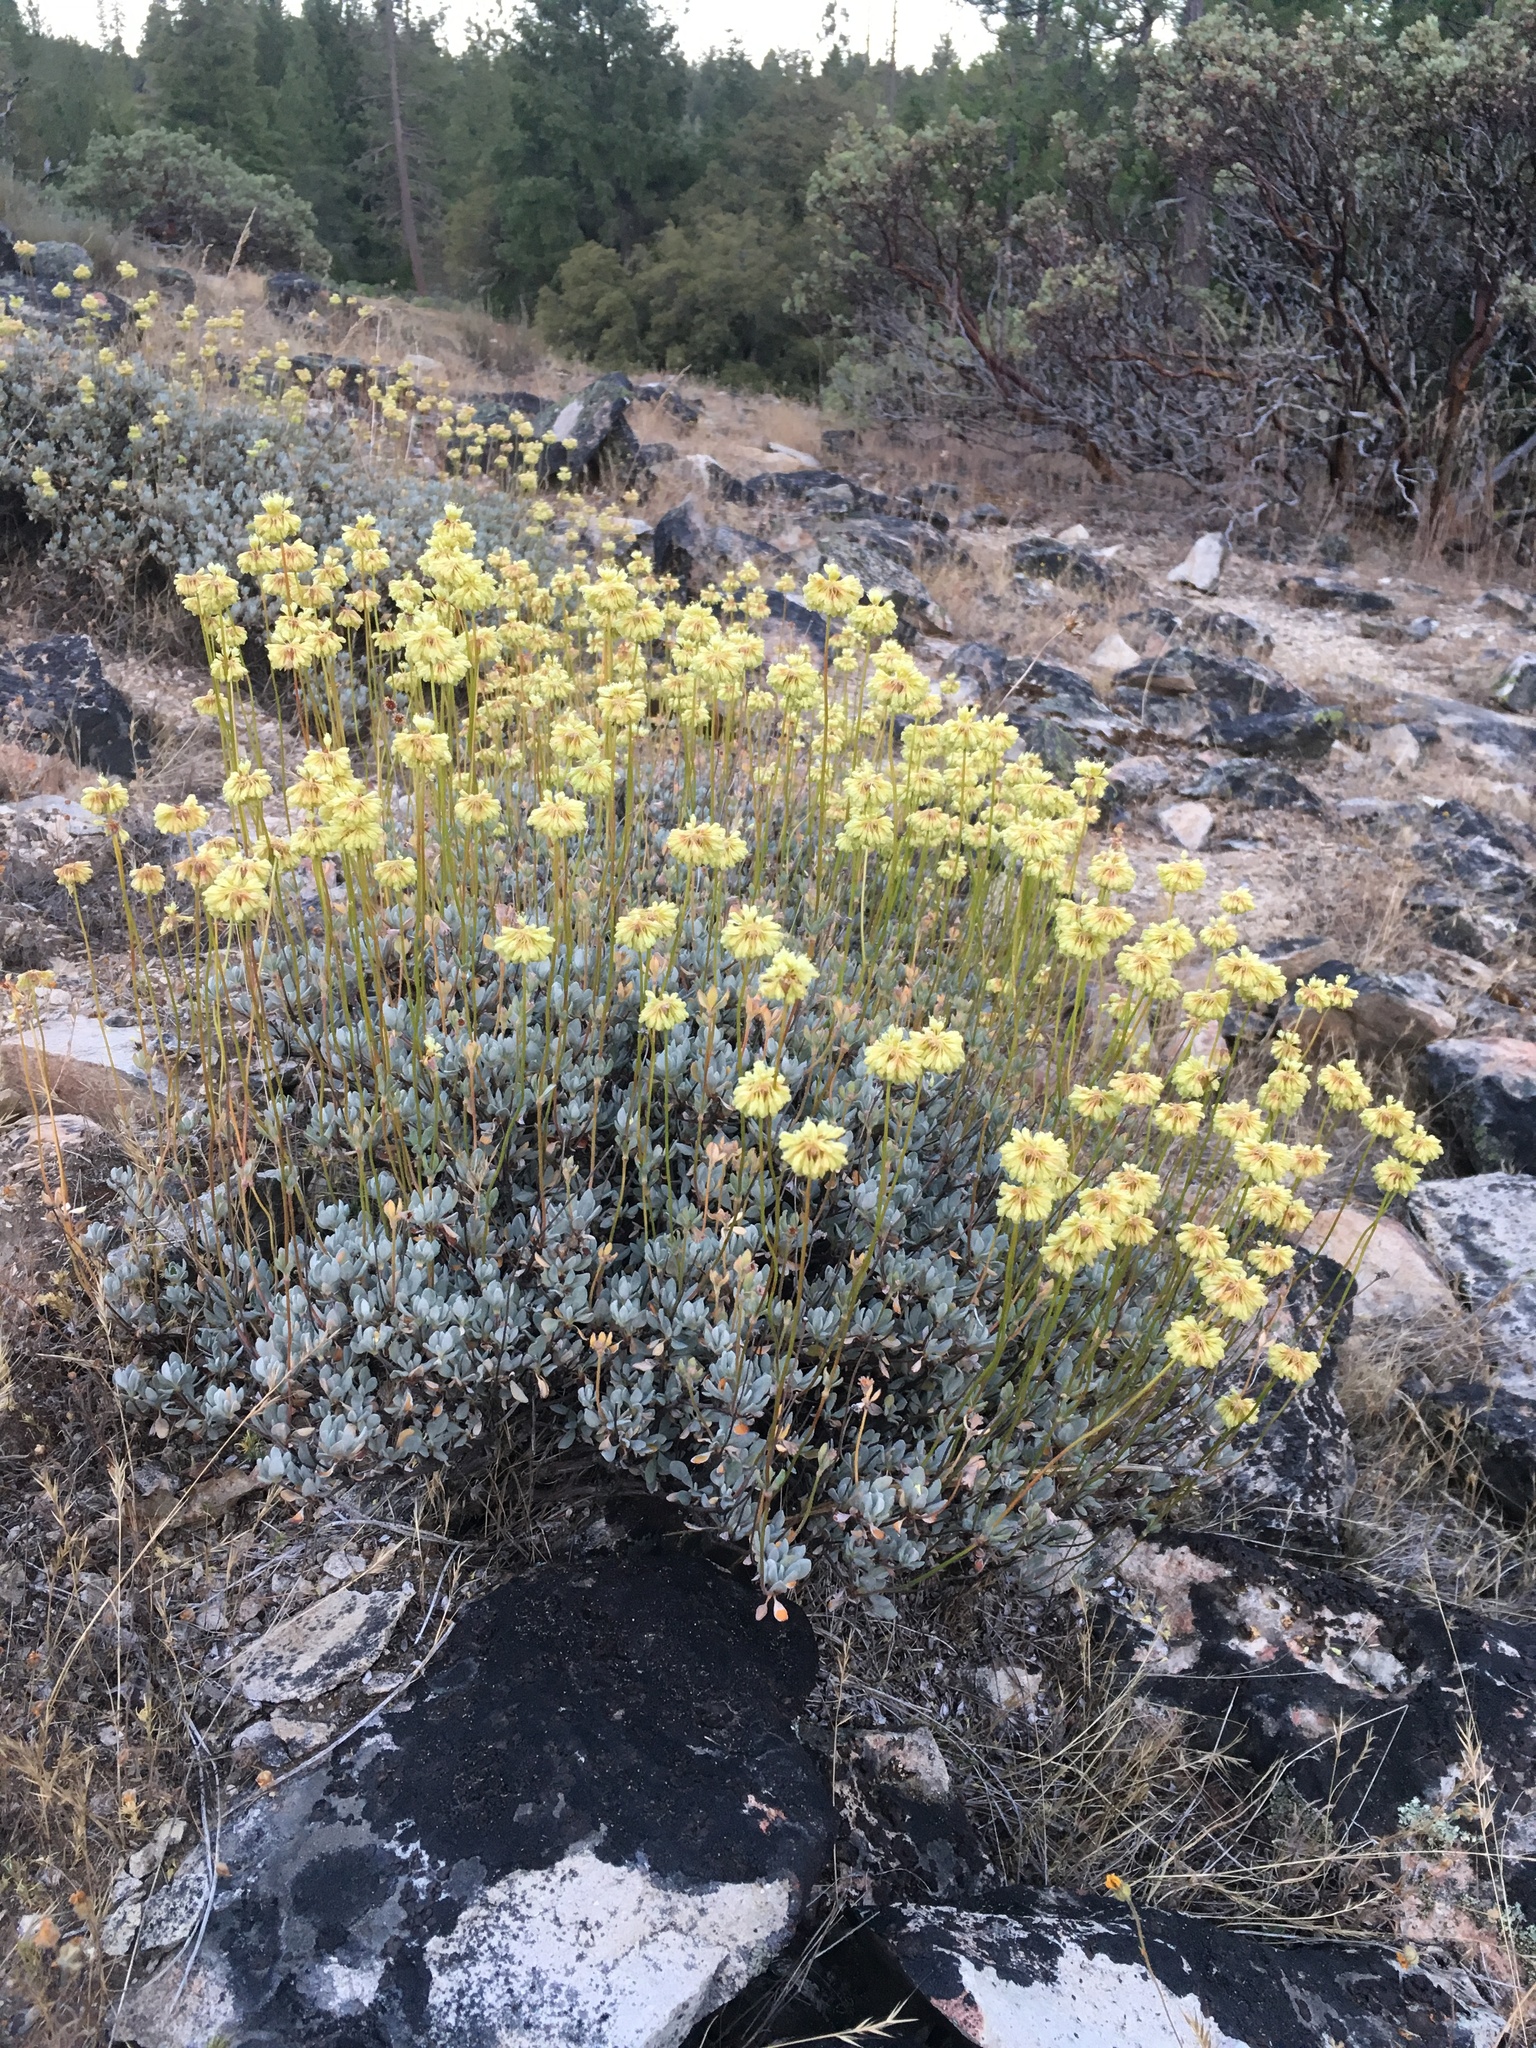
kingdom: Plantae
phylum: Tracheophyta
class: Magnoliopsida
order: Caryophyllales
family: Polygonaceae
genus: Eriogonum
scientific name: Eriogonum prattenianum
